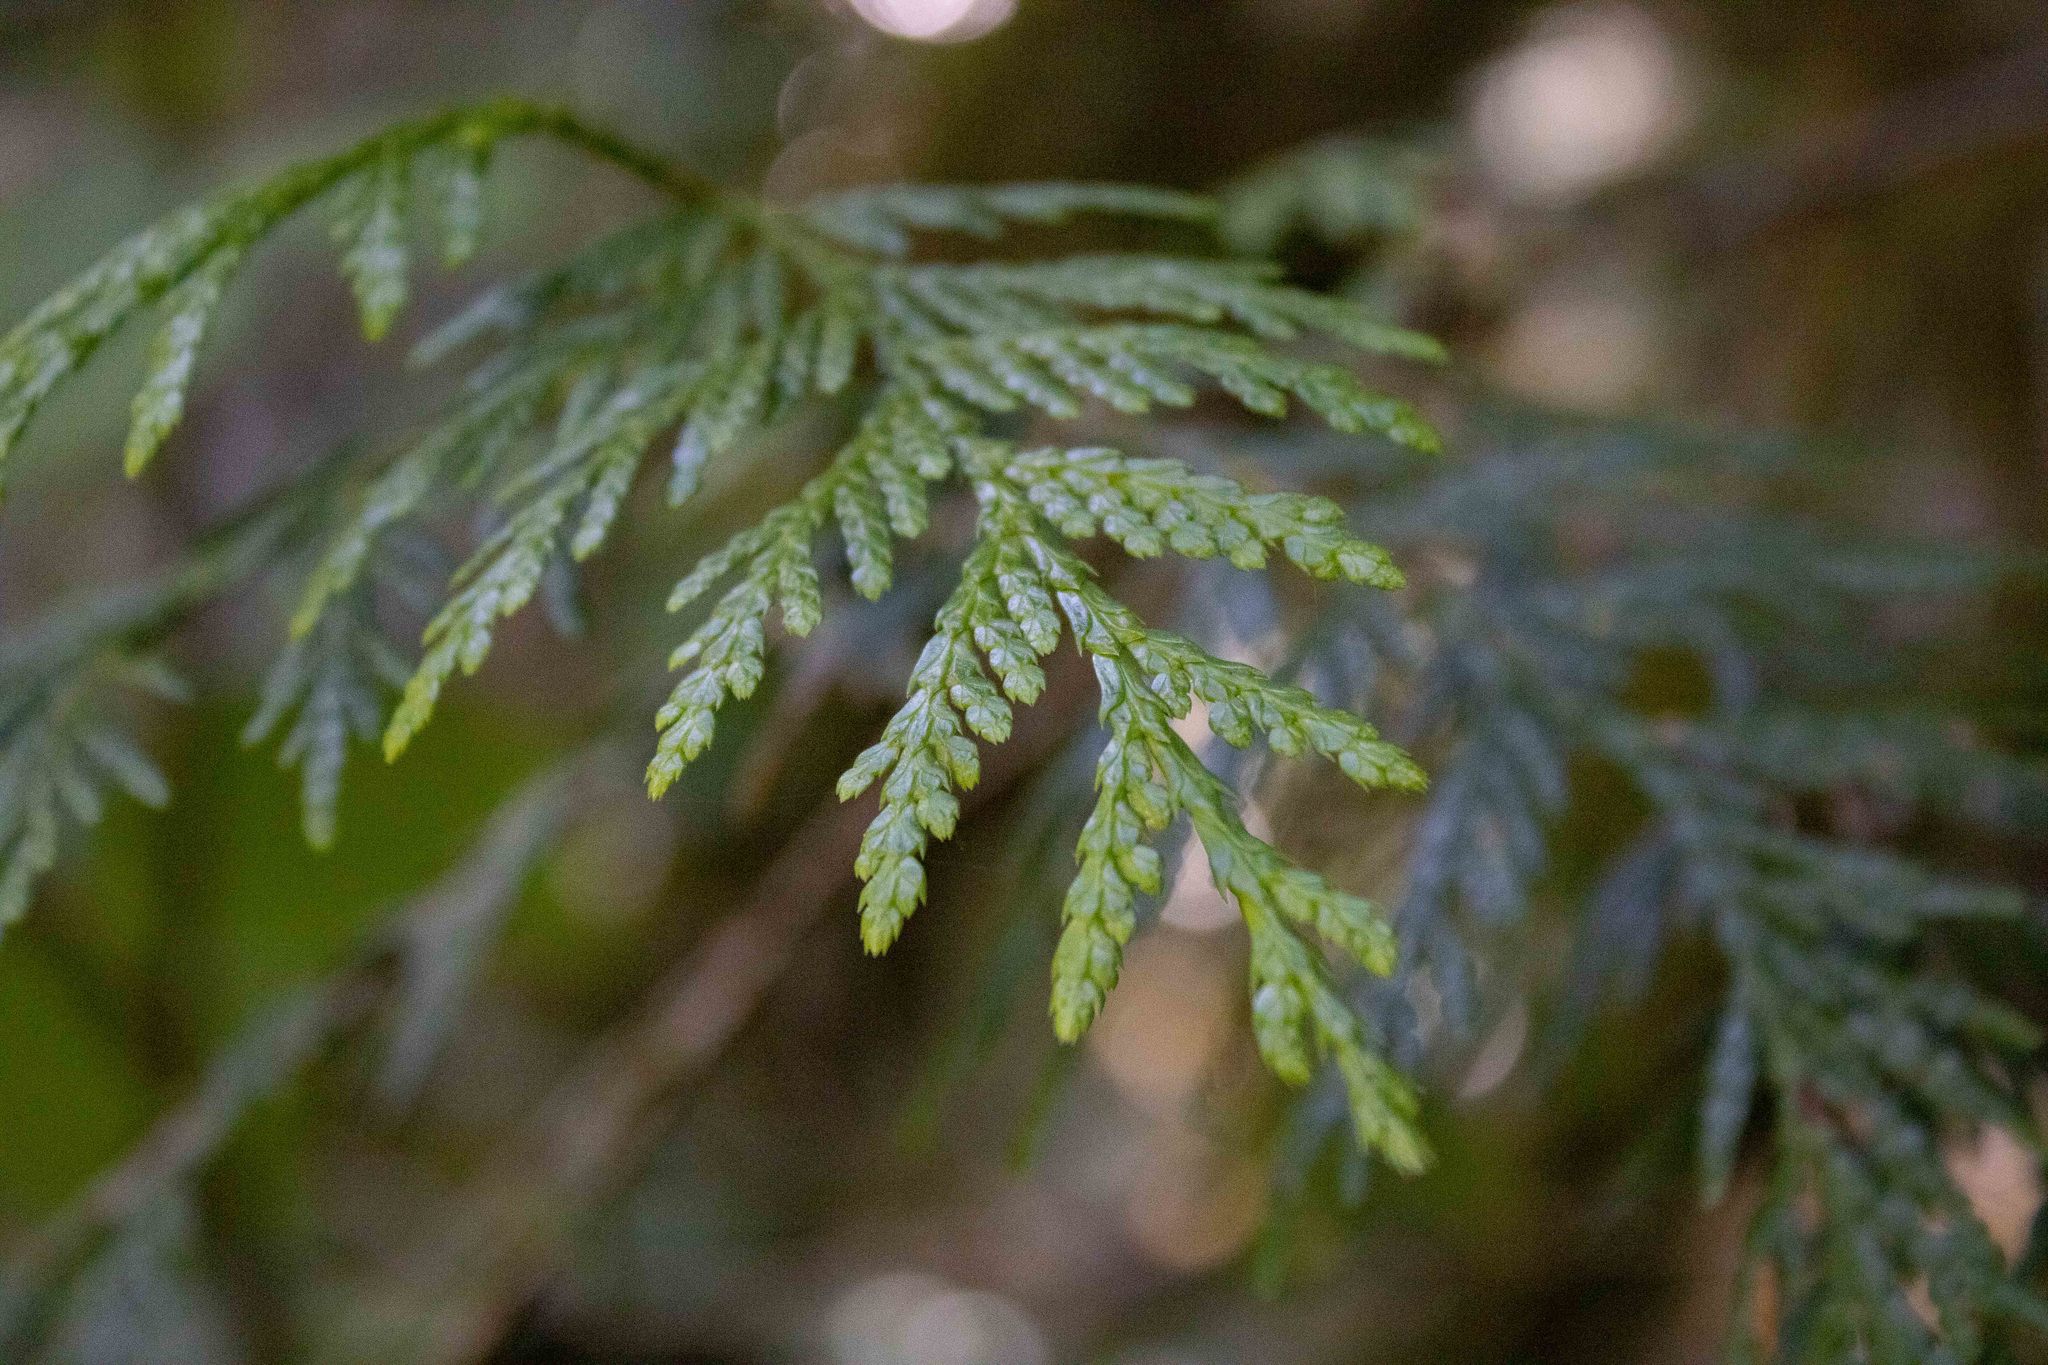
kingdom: Plantae
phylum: Tracheophyta
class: Pinopsida
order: Pinales
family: Cupressaceae
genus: Thuja
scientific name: Thuja plicata
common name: Western red-cedar
